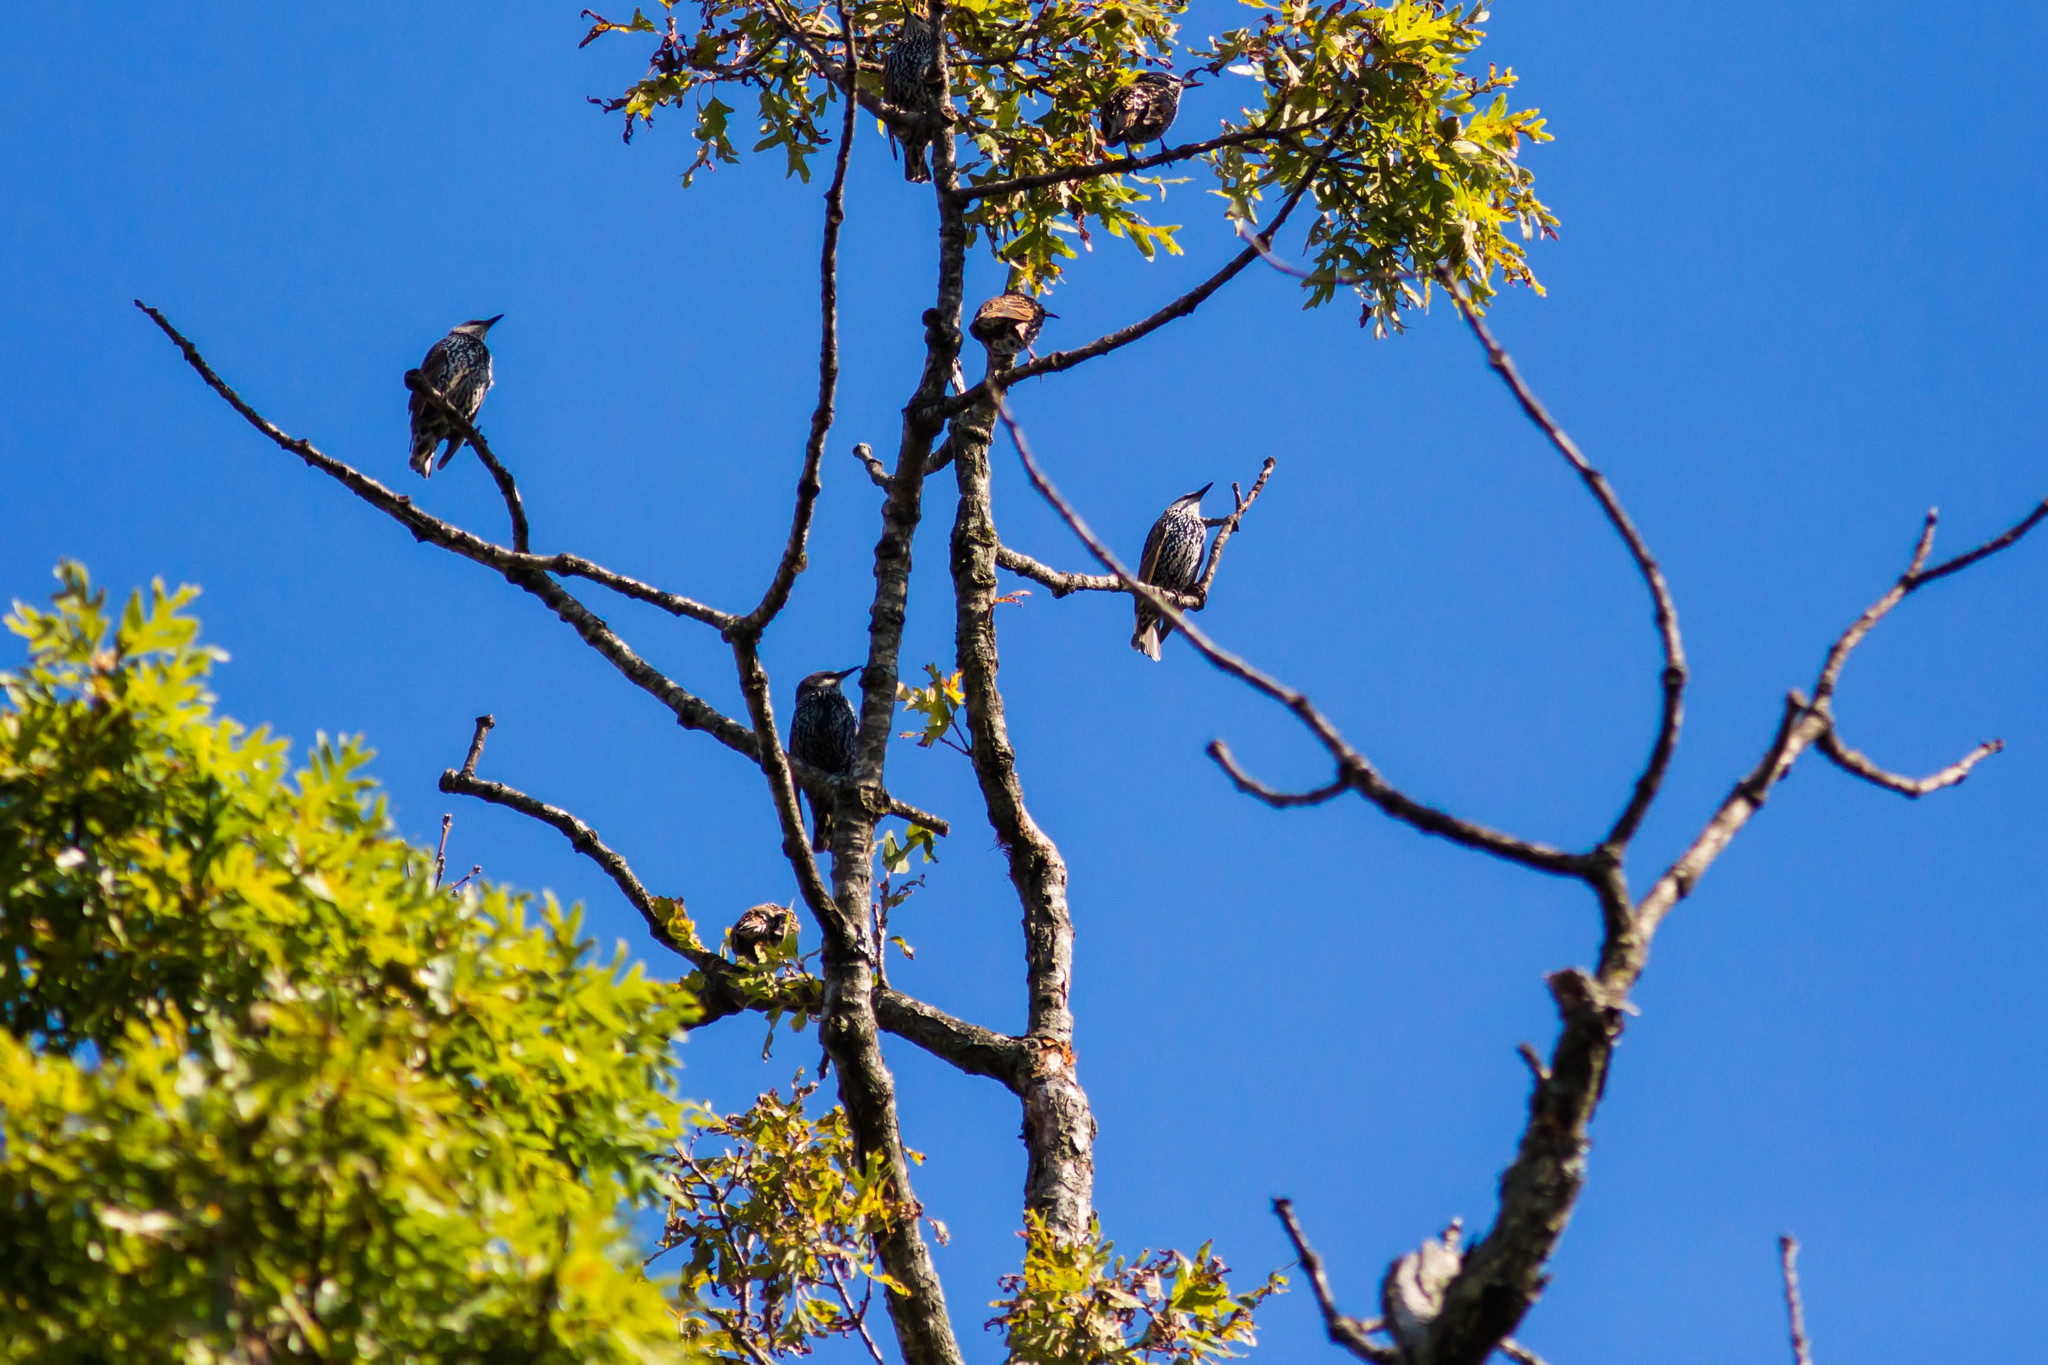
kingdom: Animalia
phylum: Chordata
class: Aves
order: Passeriformes
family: Sturnidae
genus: Sturnus
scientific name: Sturnus vulgaris
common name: Common starling
